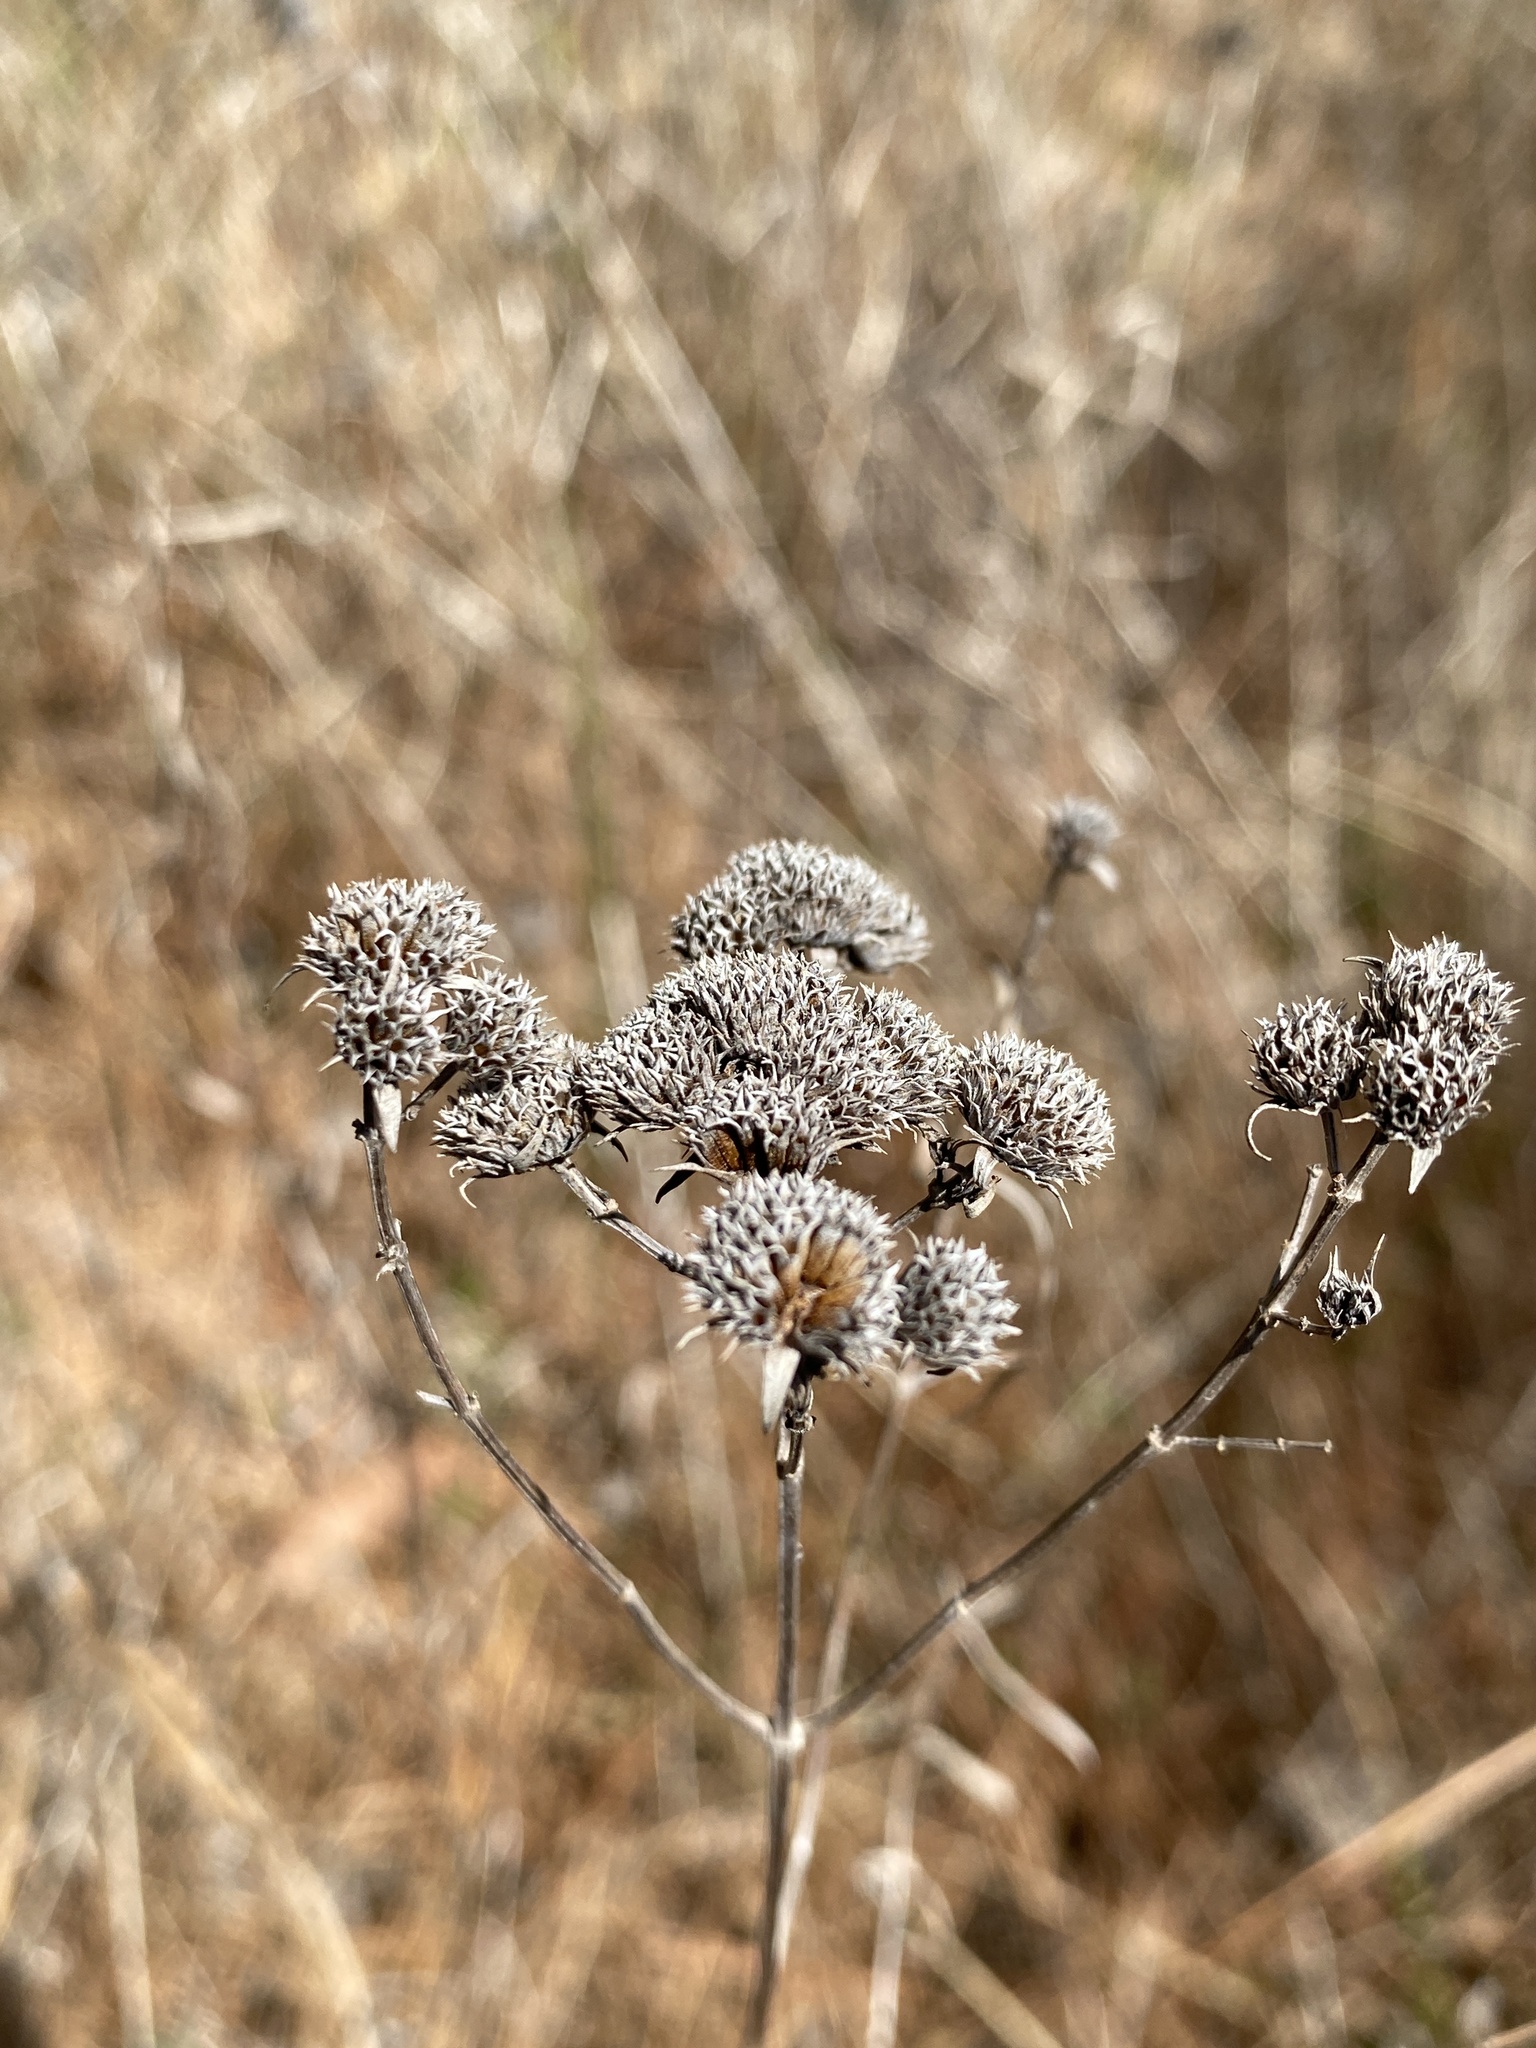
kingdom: Plantae
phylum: Tracheophyta
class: Magnoliopsida
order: Lamiales
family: Lamiaceae
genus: Pycnanthemum
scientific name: Pycnanthemum tenuifolium
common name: Narrow-leaf mountain-mint
